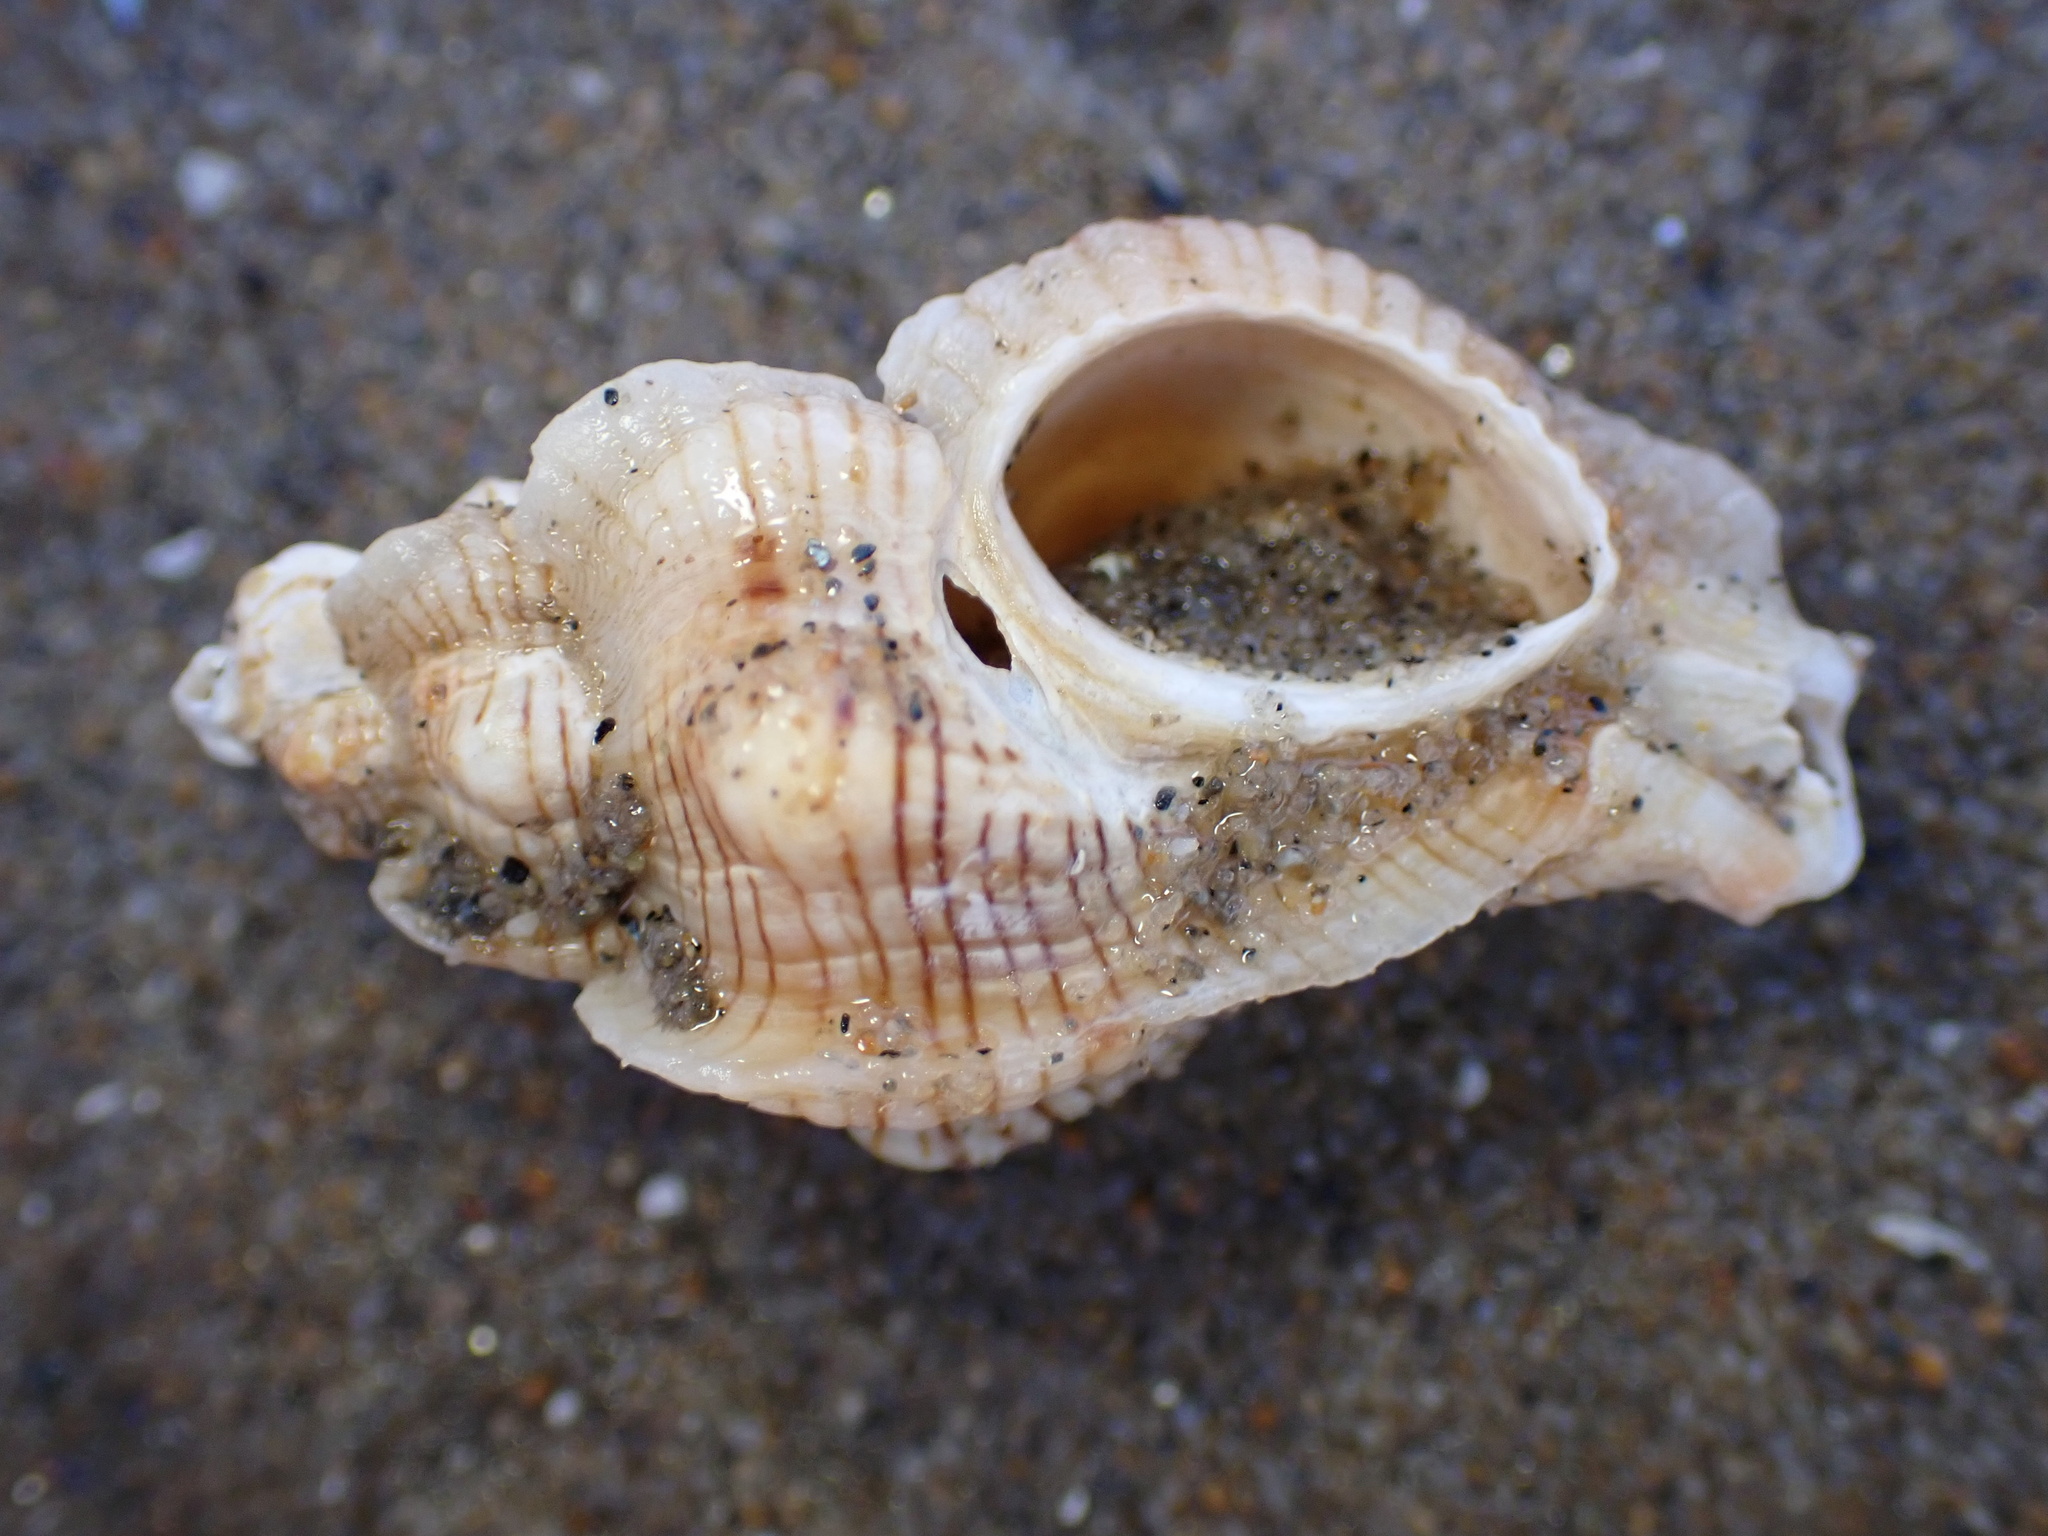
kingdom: Animalia
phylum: Mollusca
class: Gastropoda
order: Neogastropoda
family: Muricidae
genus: Pteropurpura
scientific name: Pteropurpura festiva
